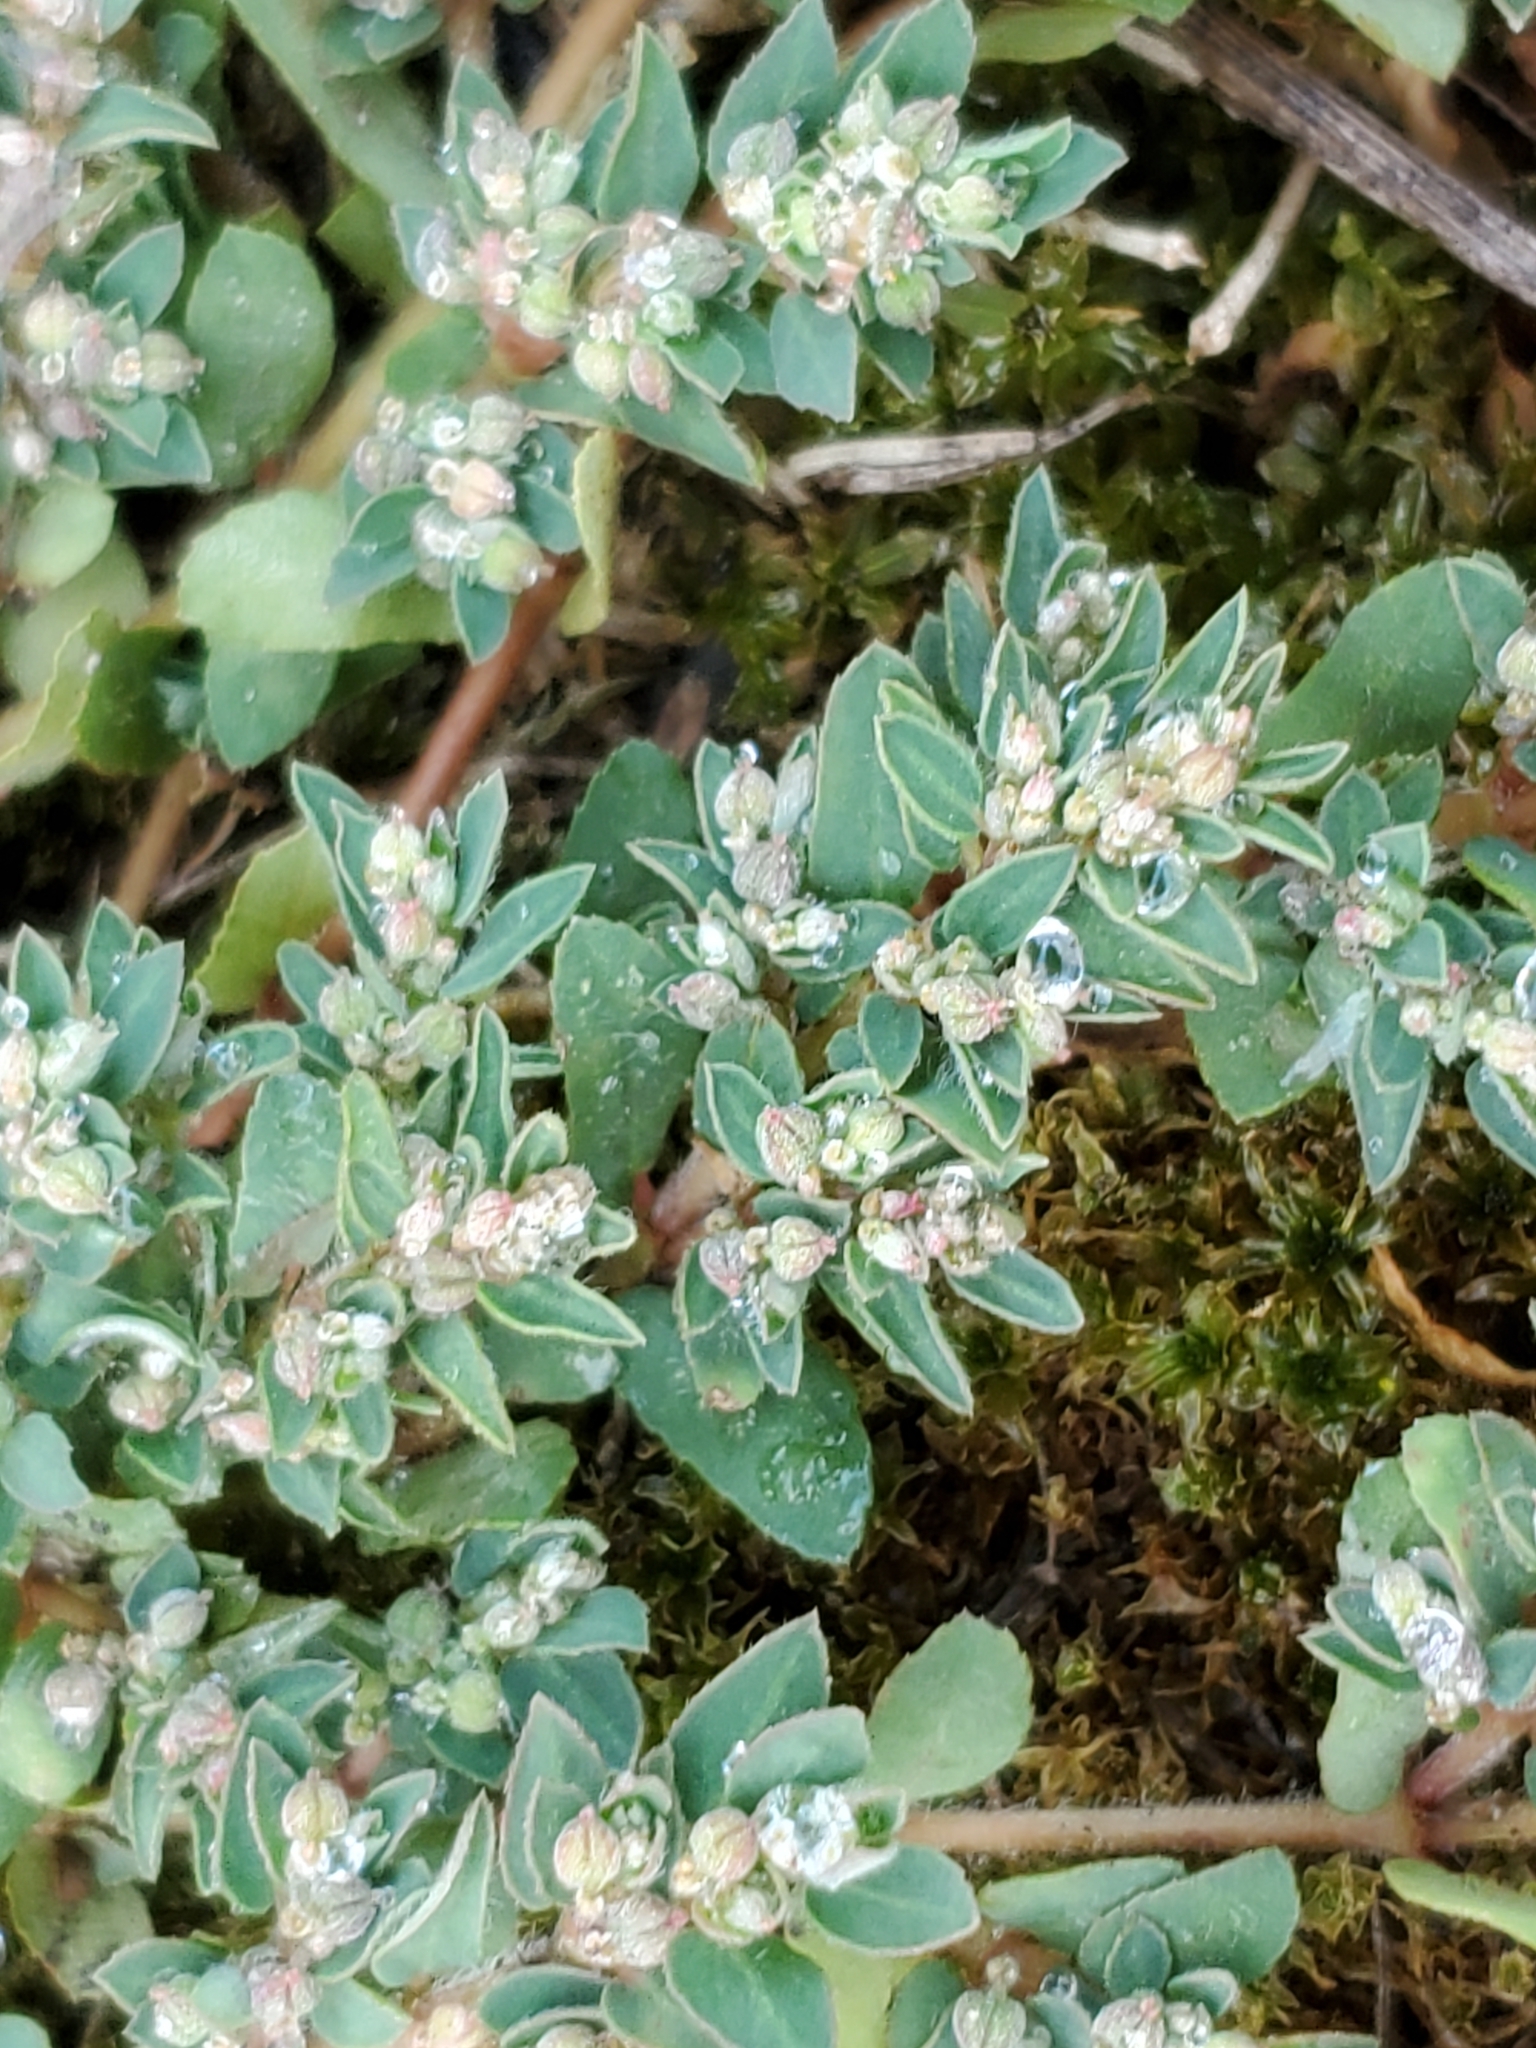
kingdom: Plantae
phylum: Tracheophyta
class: Magnoliopsida
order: Malpighiales
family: Euphorbiaceae
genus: Euphorbia
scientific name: Euphorbia maculata
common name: Spotted spurge
